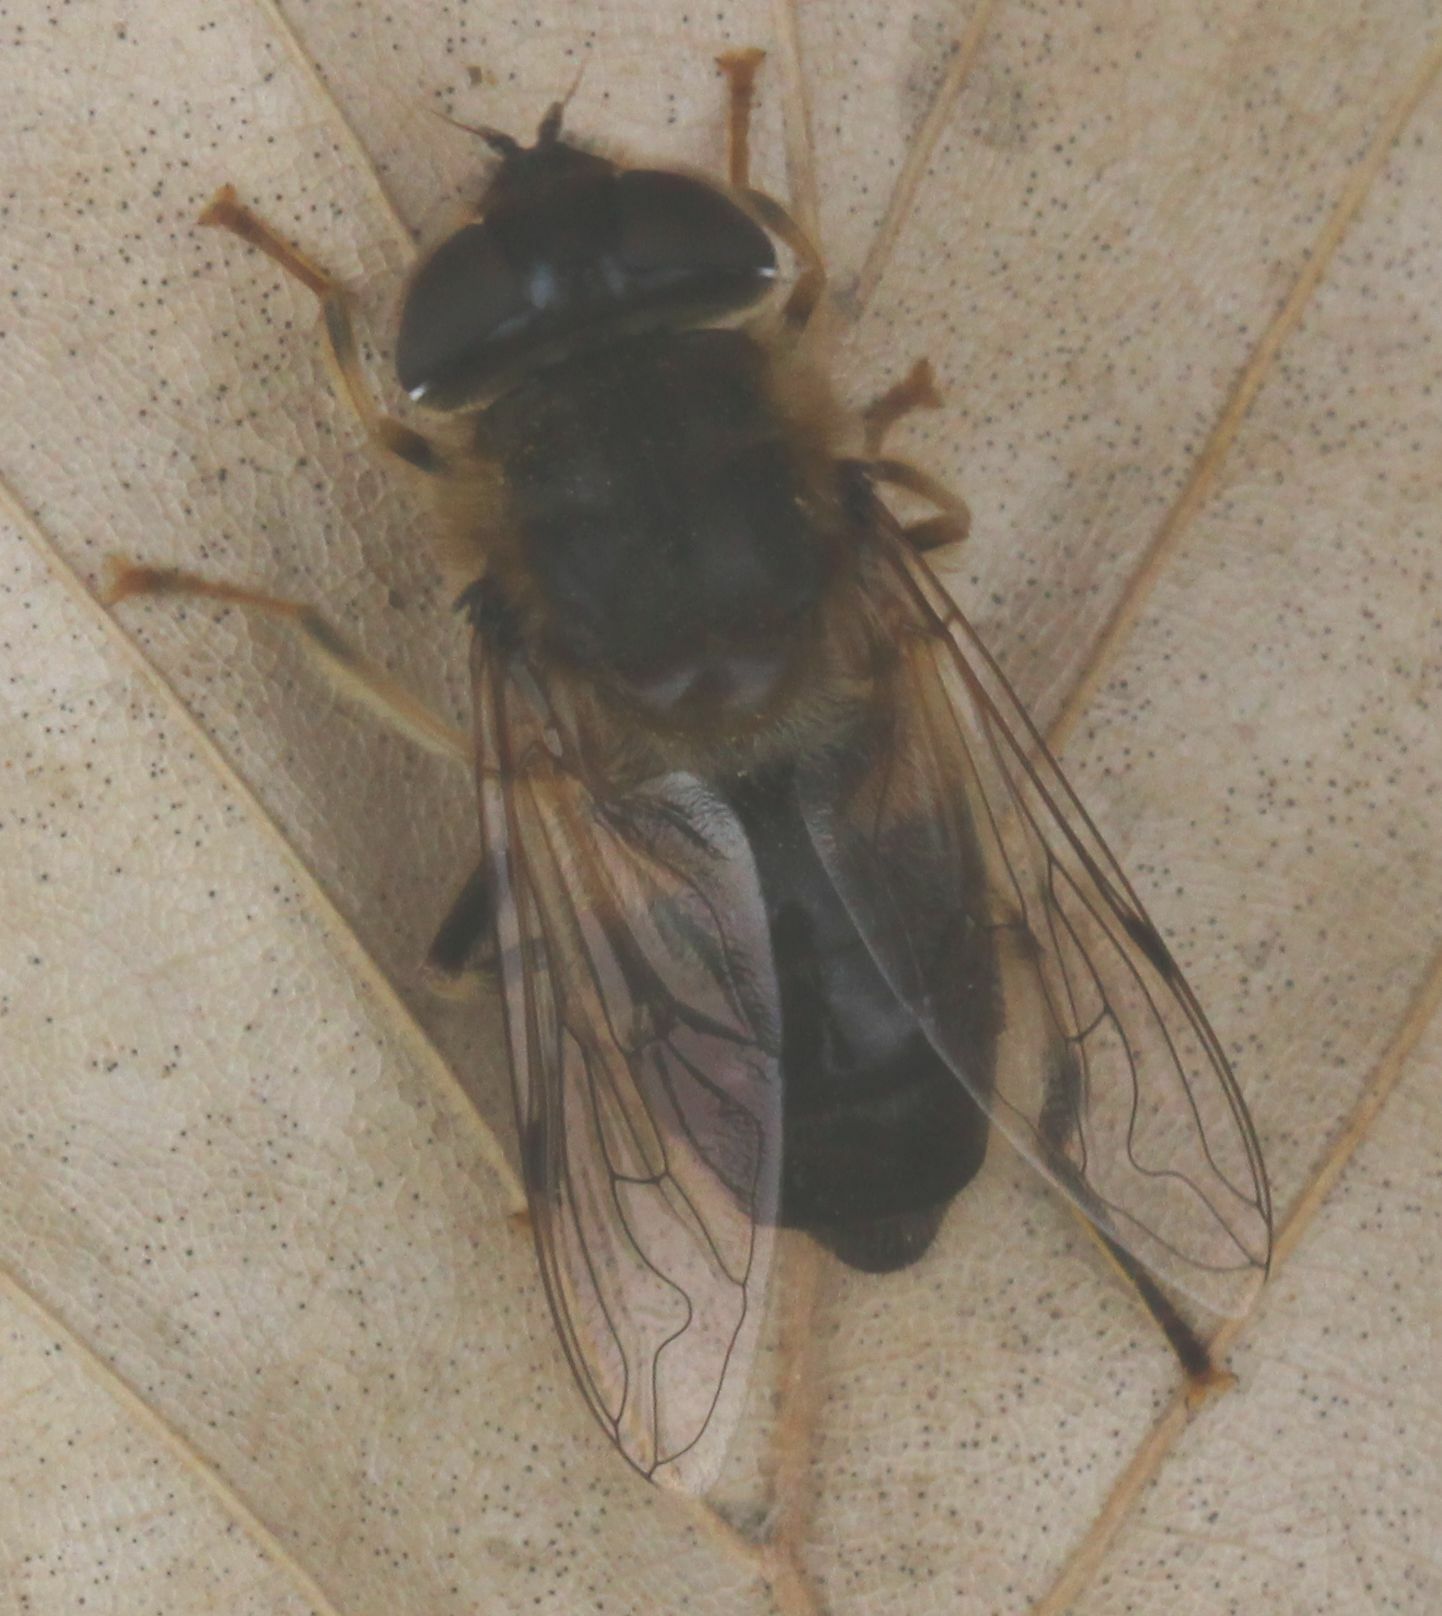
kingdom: Animalia
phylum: Arthropoda
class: Insecta
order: Diptera
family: Syrphidae
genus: Eristalis
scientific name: Eristalis pertinax
